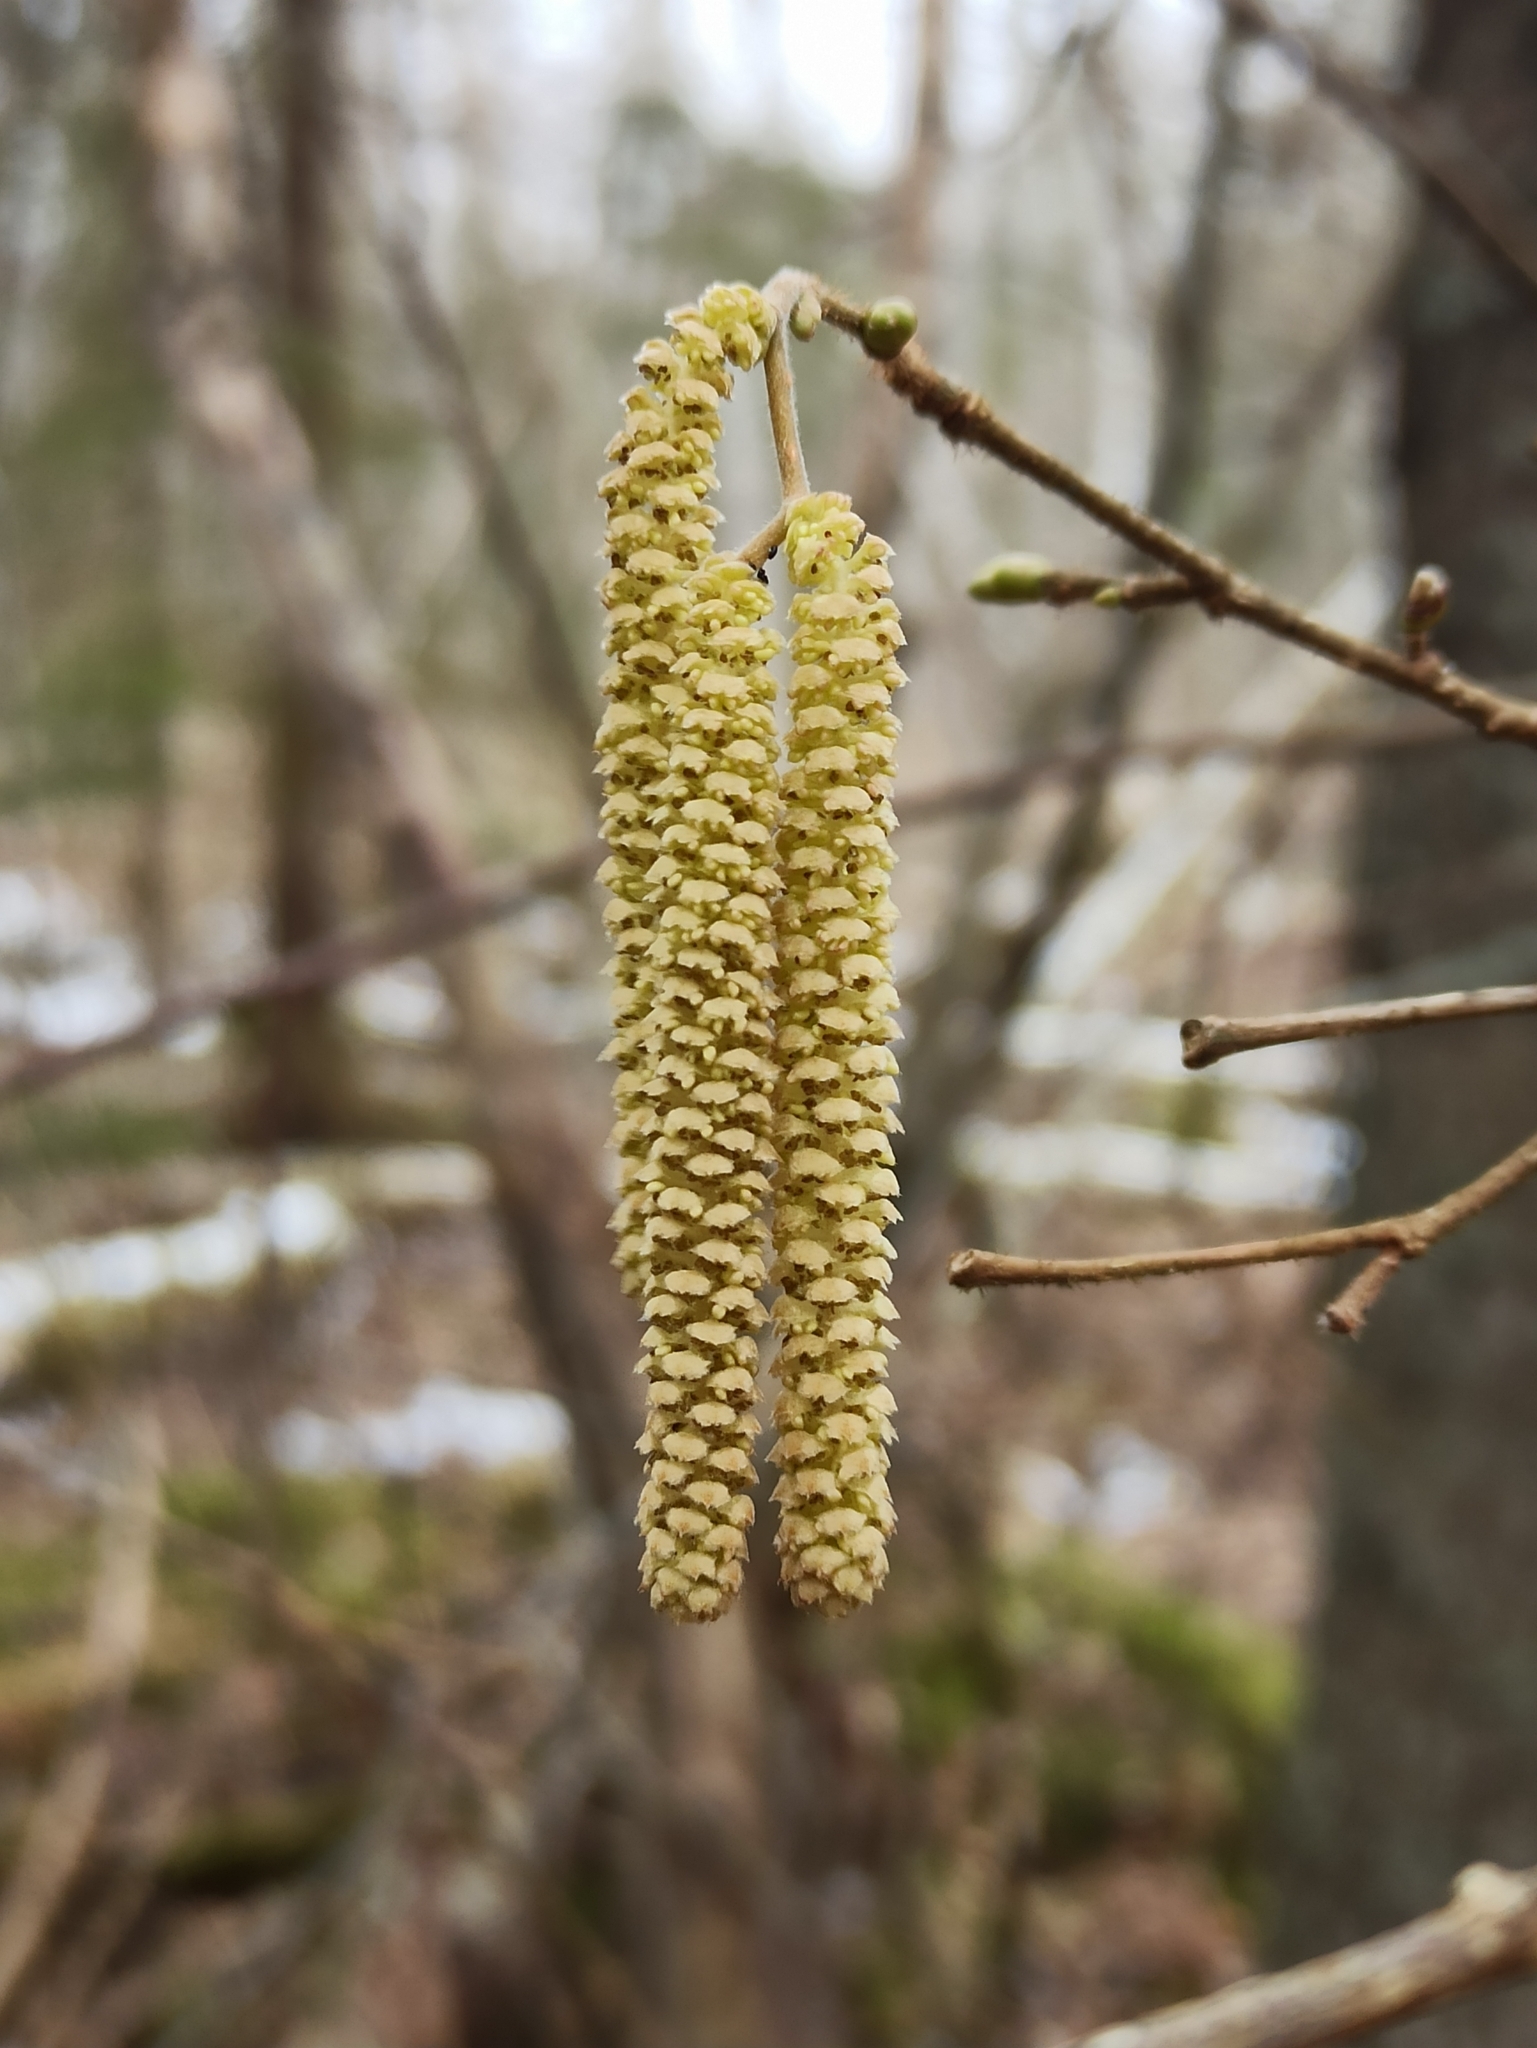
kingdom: Plantae
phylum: Tracheophyta
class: Magnoliopsida
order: Fagales
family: Betulaceae
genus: Corylus
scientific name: Corylus avellana
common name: European hazel
